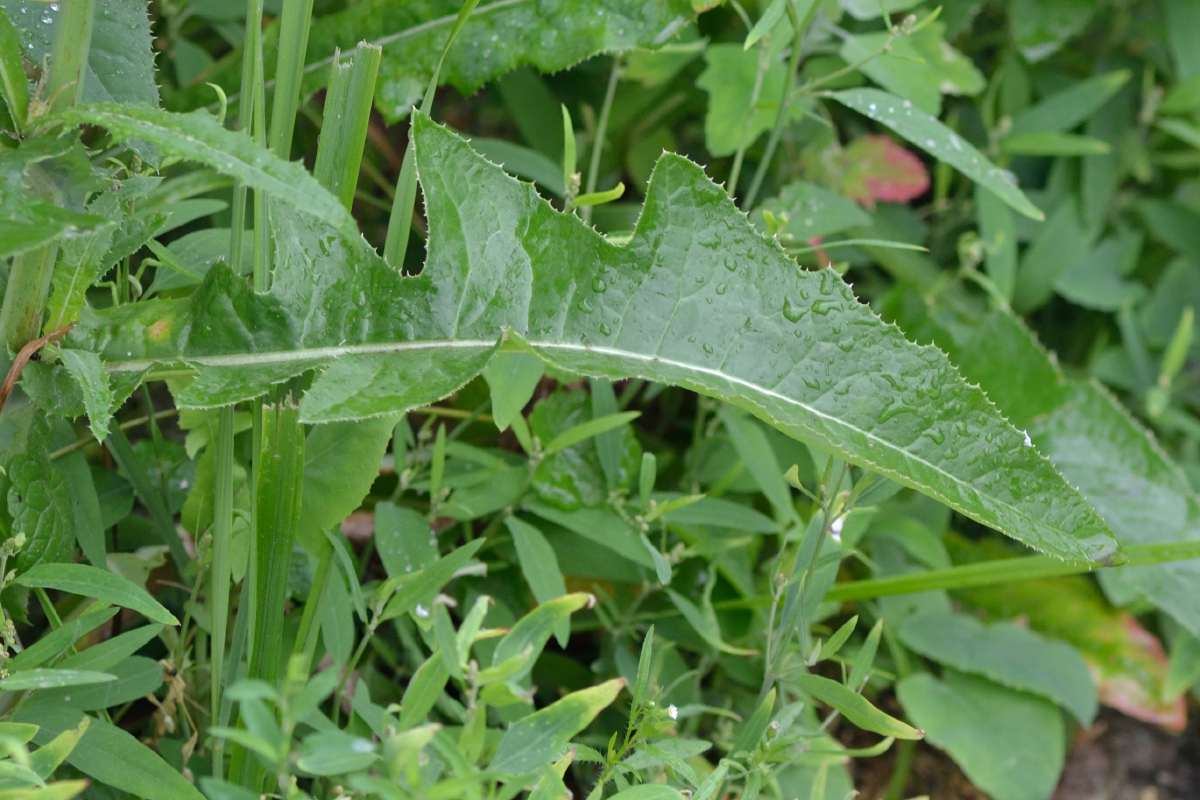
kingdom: Plantae
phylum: Tracheophyta
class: Magnoliopsida
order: Asterales
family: Asteraceae
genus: Sonchus
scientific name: Sonchus arvensis
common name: Perennial sow-thistle
